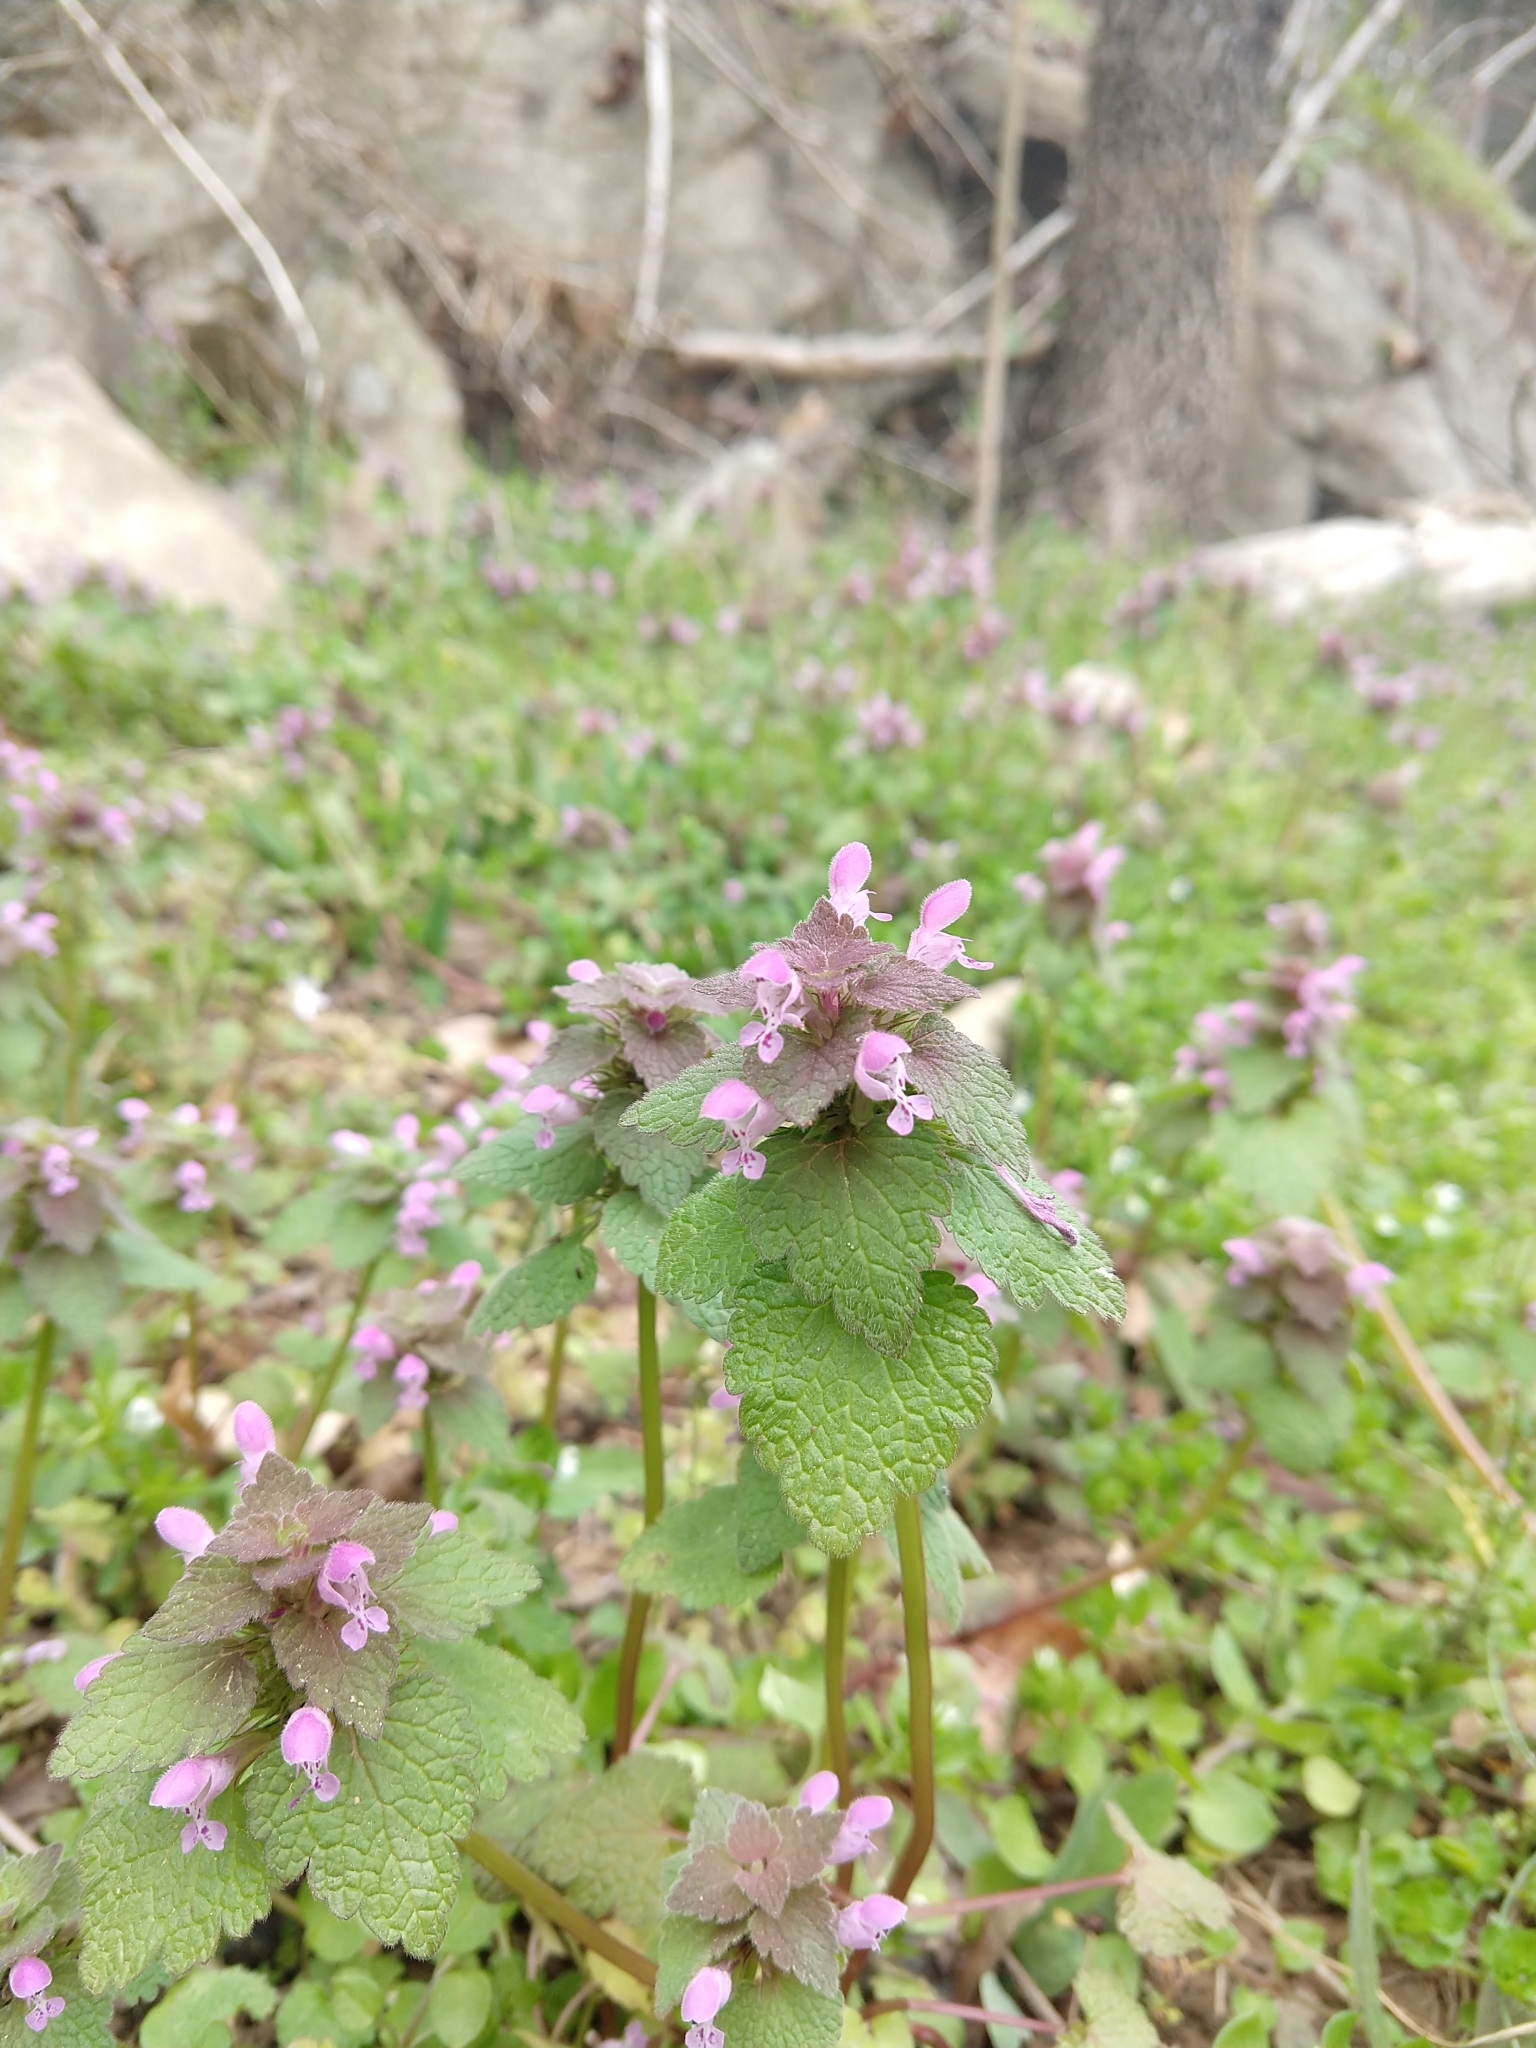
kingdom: Plantae
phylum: Tracheophyta
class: Magnoliopsida
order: Lamiales
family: Lamiaceae
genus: Lamium
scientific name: Lamium purpureum
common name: Red dead-nettle
